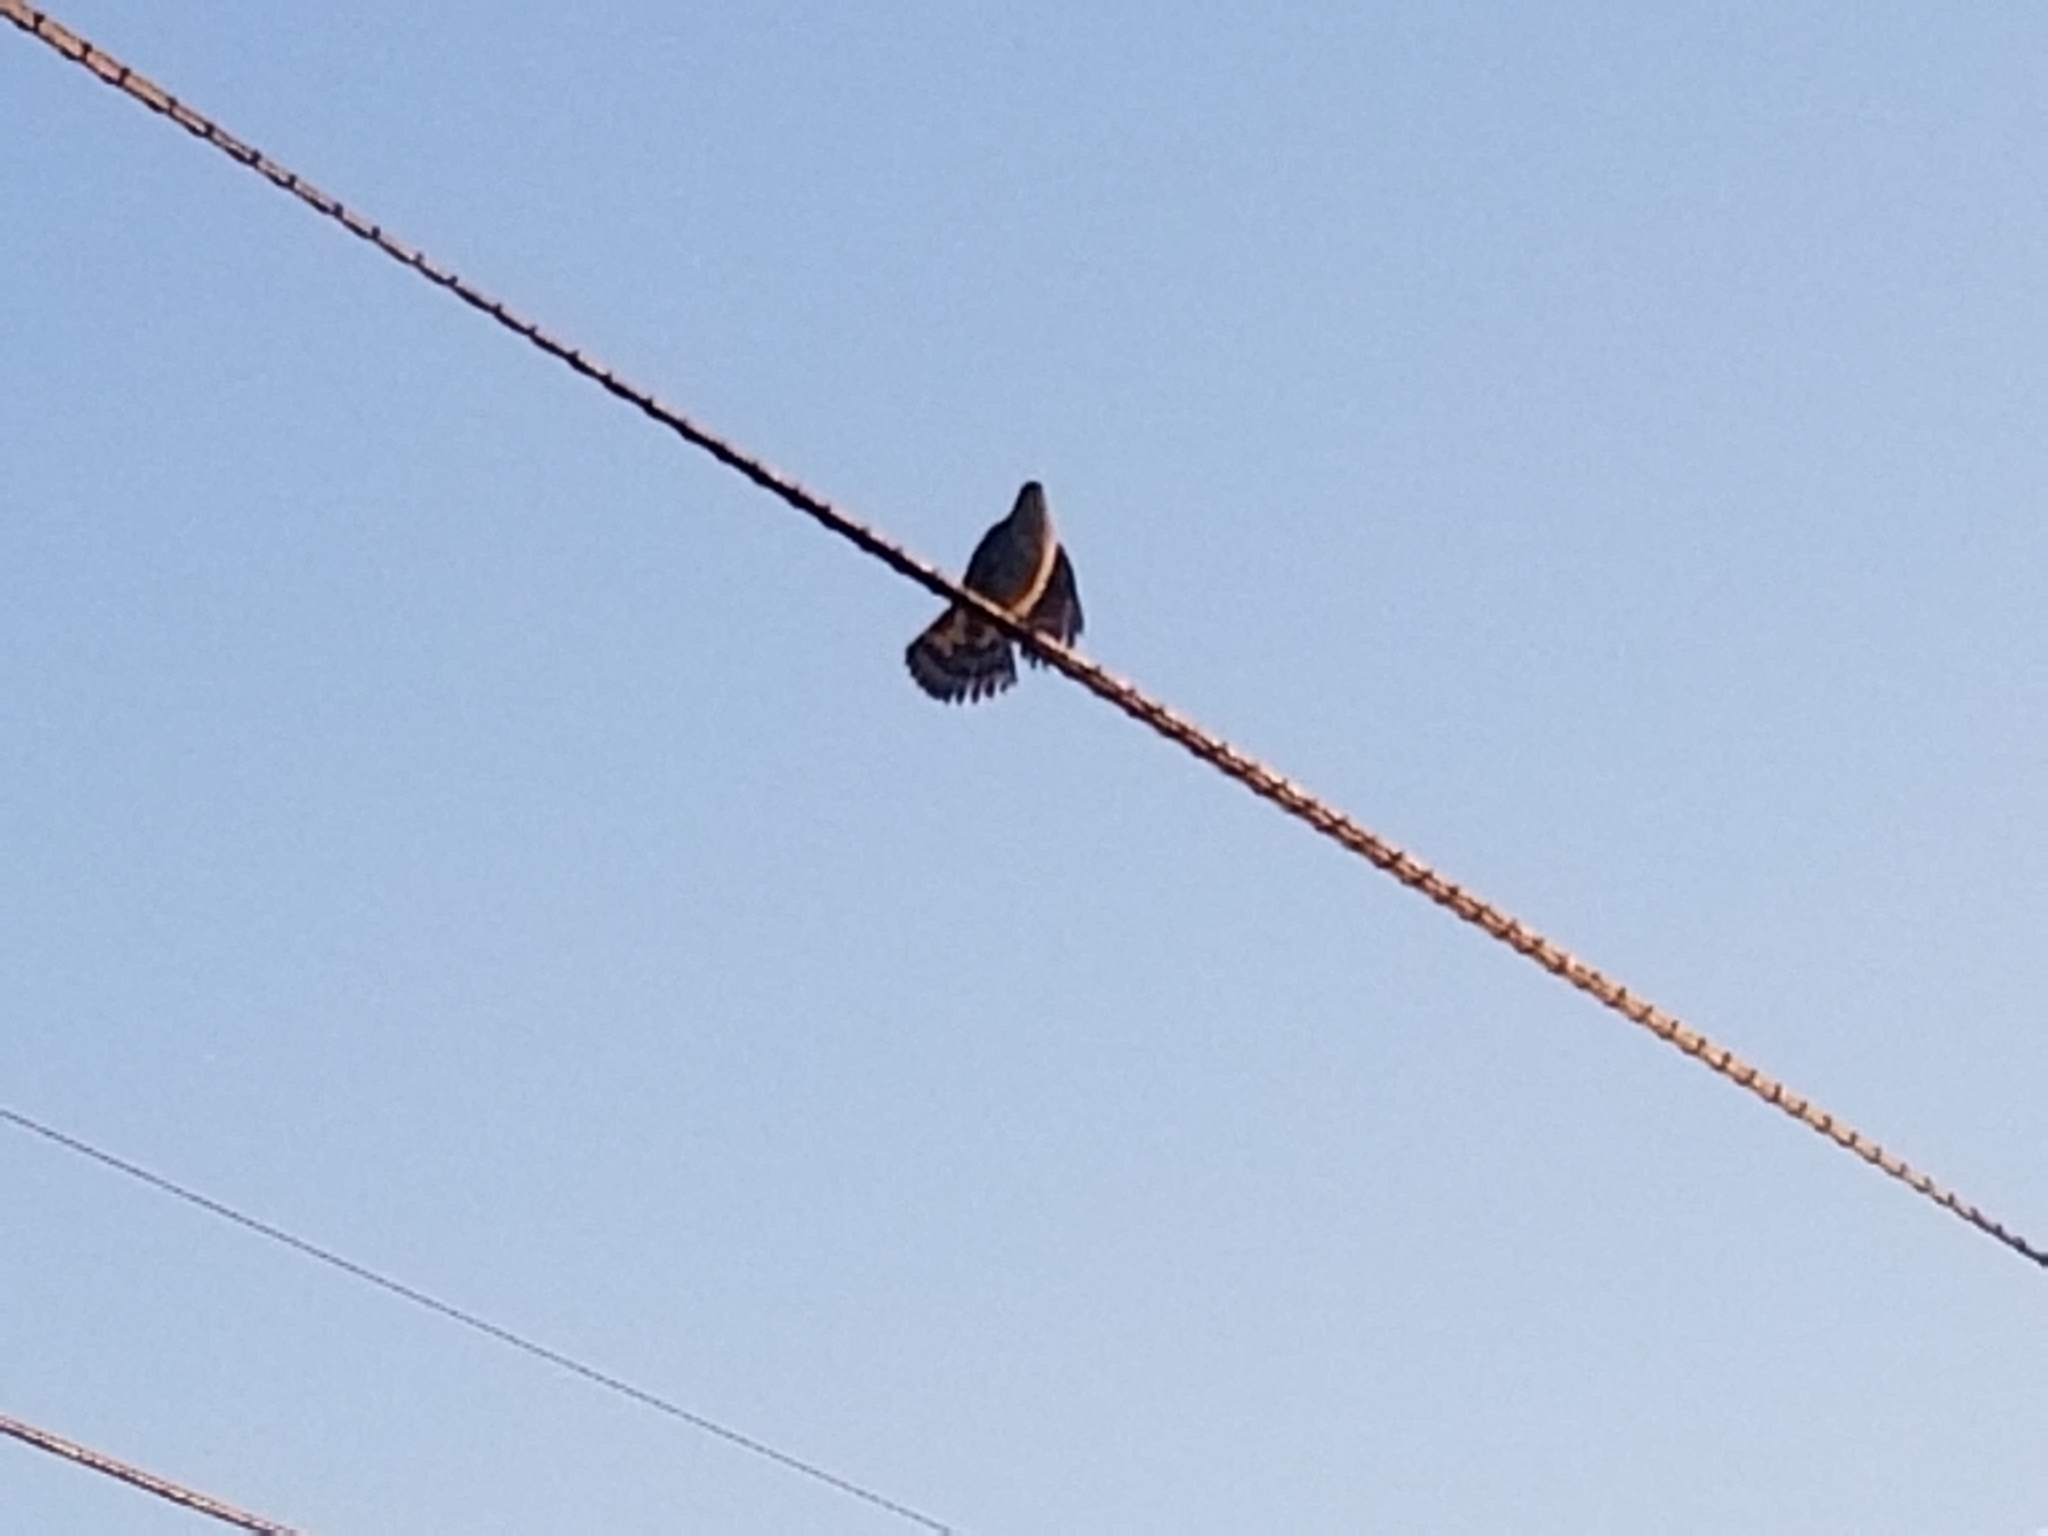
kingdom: Animalia
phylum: Chordata
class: Aves
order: Accipitriformes
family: Accipitridae
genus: Accipiter
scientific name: Accipiter cooperii
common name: Cooper's hawk
